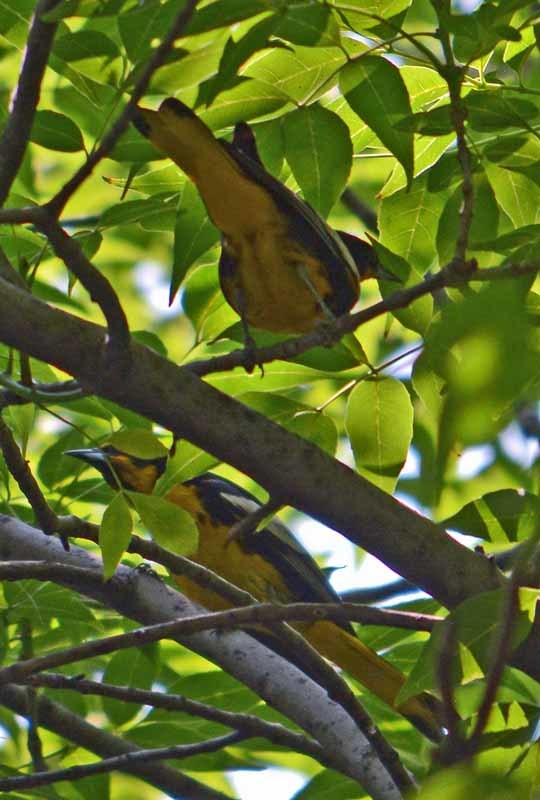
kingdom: Animalia
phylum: Chordata
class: Aves
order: Passeriformes
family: Icteridae
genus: Icterus
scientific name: Icterus abeillei
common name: Black-backed oriole
